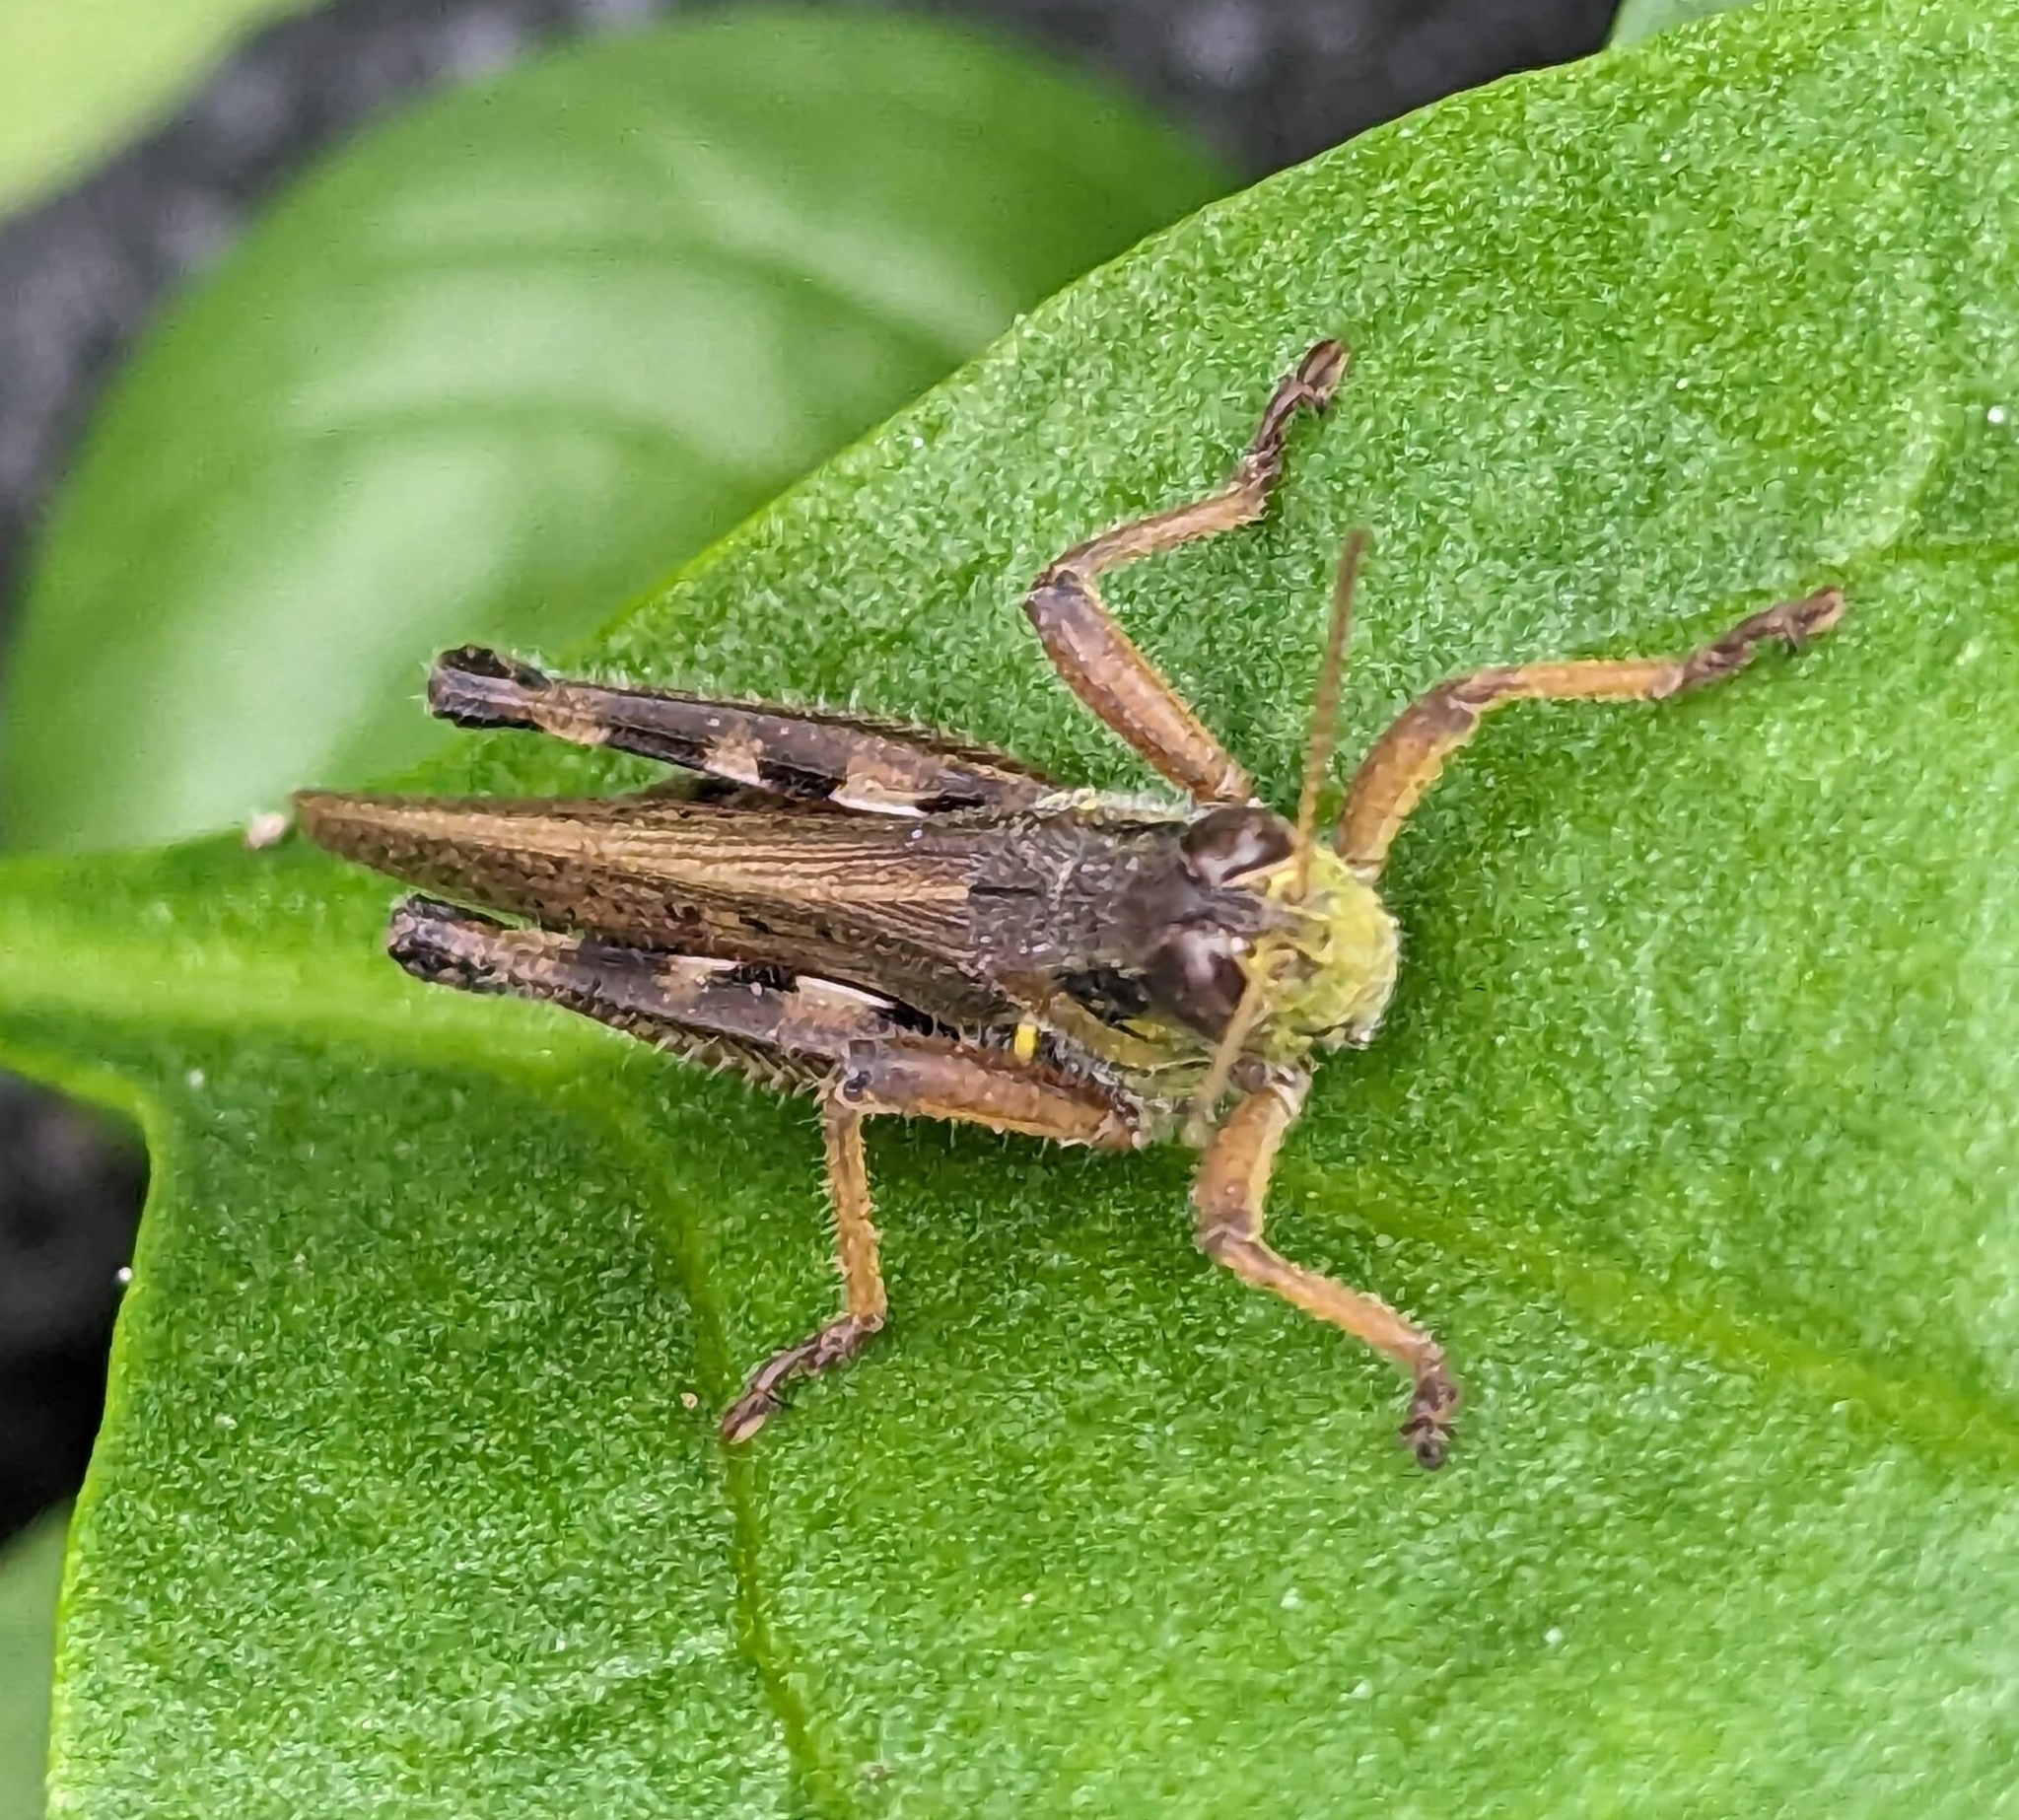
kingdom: Animalia
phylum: Arthropoda
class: Insecta
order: Orthoptera
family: Acrididae
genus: Melanoplus
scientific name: Melanoplus femurrubrum
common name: Red-legged grasshopper
